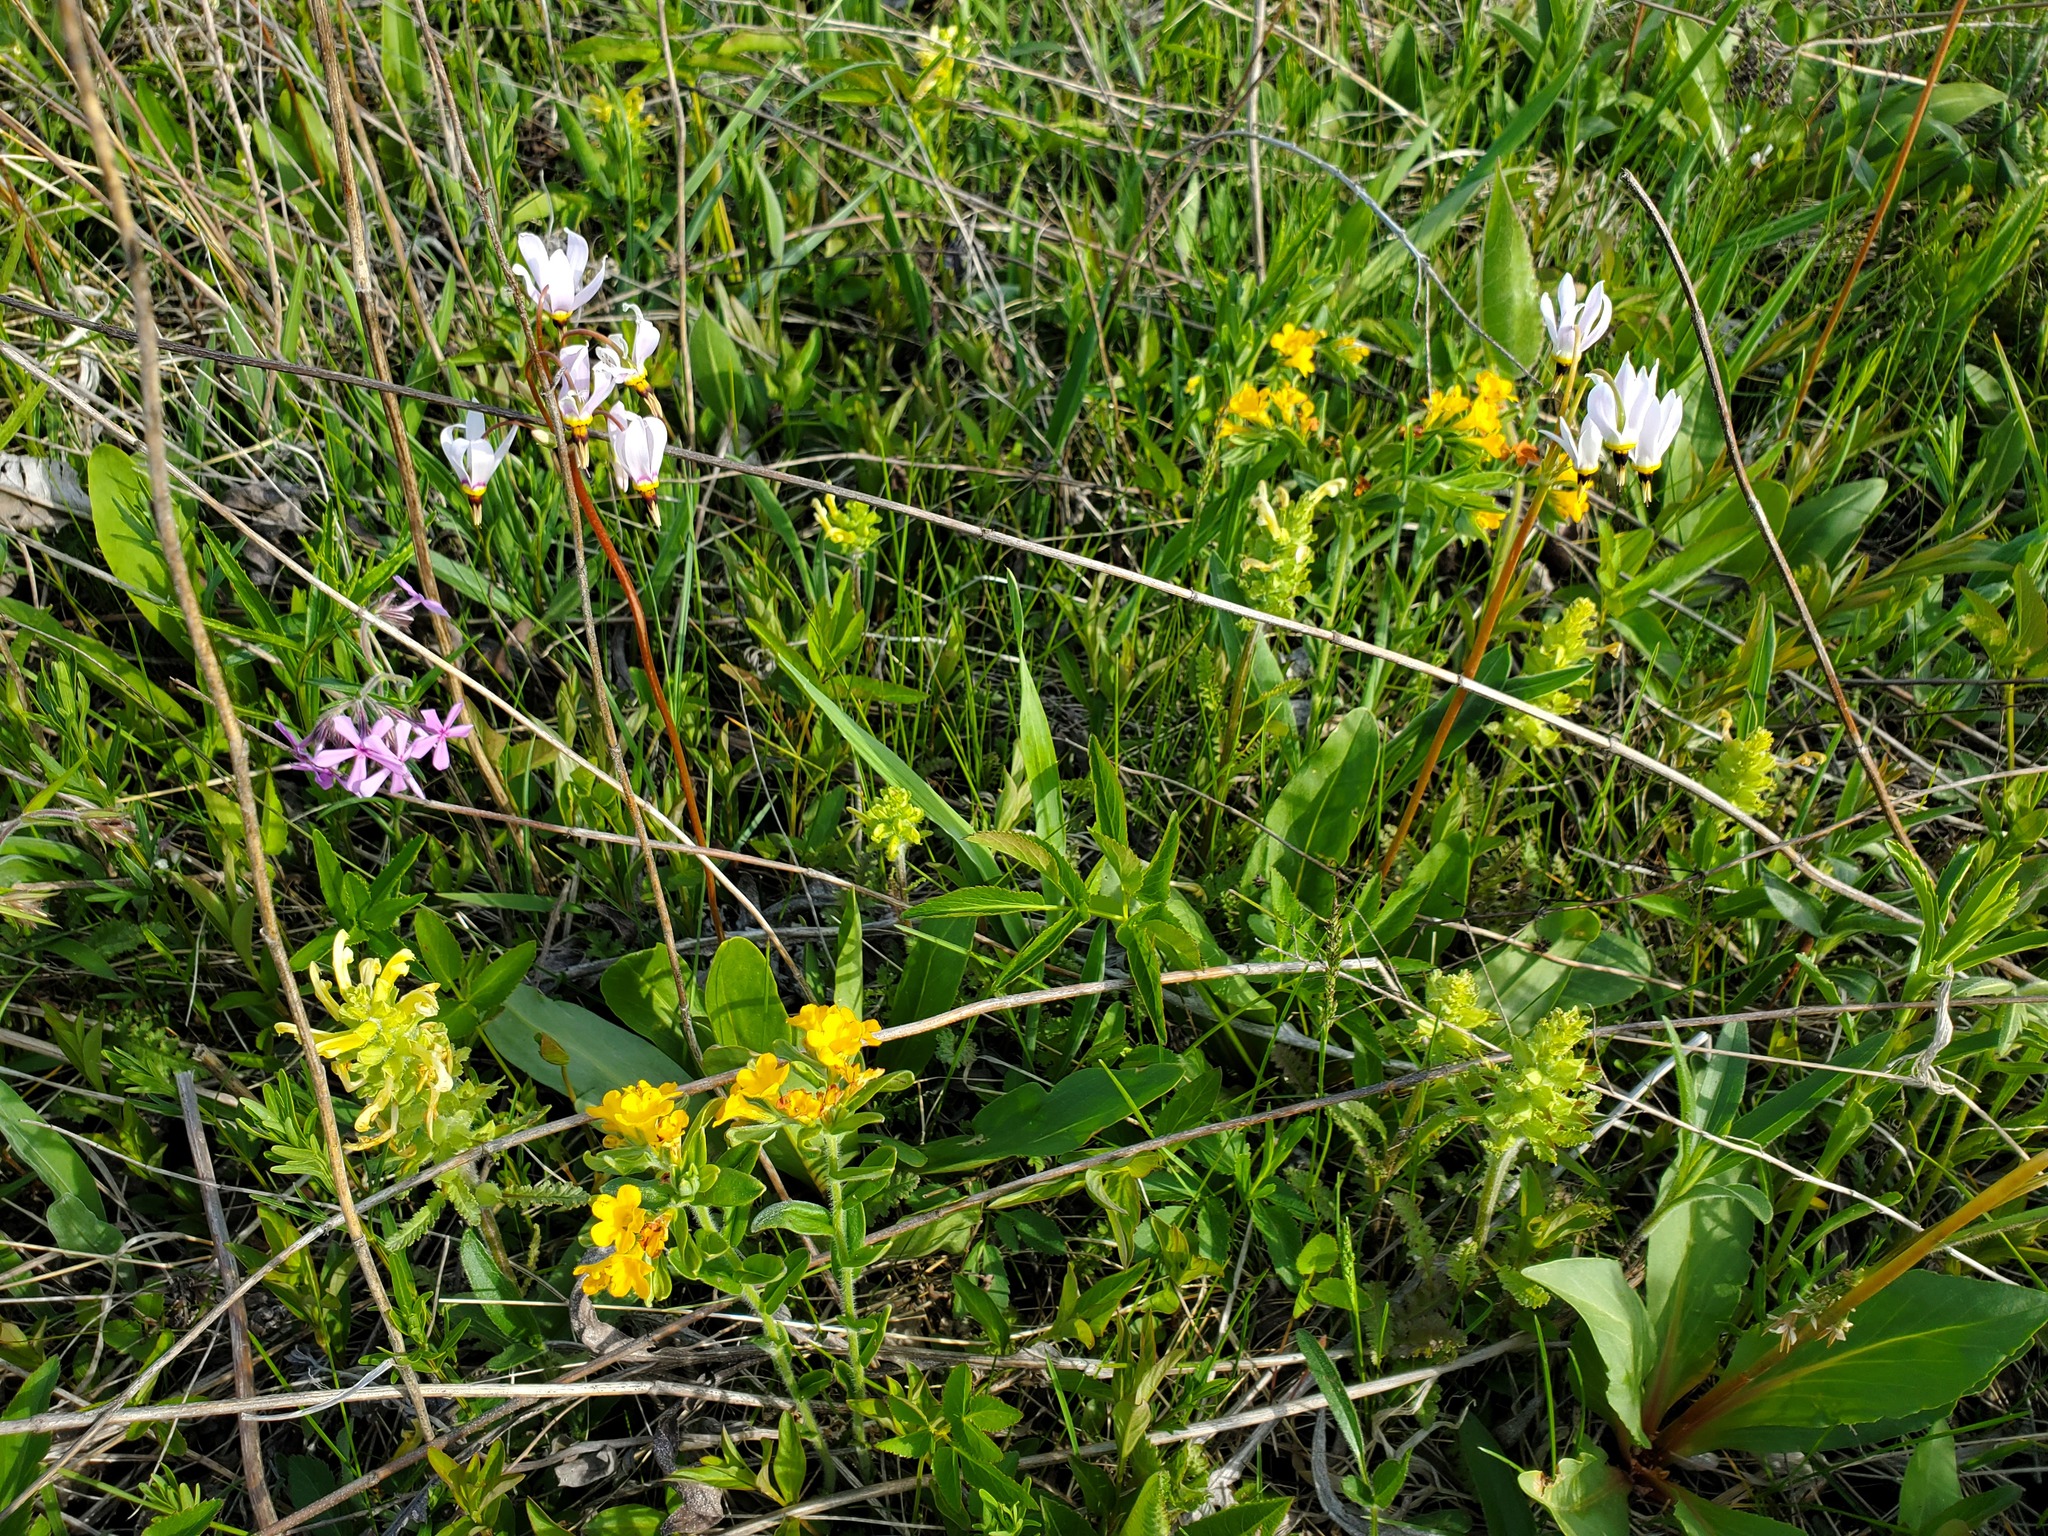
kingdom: Plantae
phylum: Tracheophyta
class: Magnoliopsida
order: Lamiales
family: Orobanchaceae
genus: Pedicularis
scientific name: Pedicularis canadensis
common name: Early lousewort
